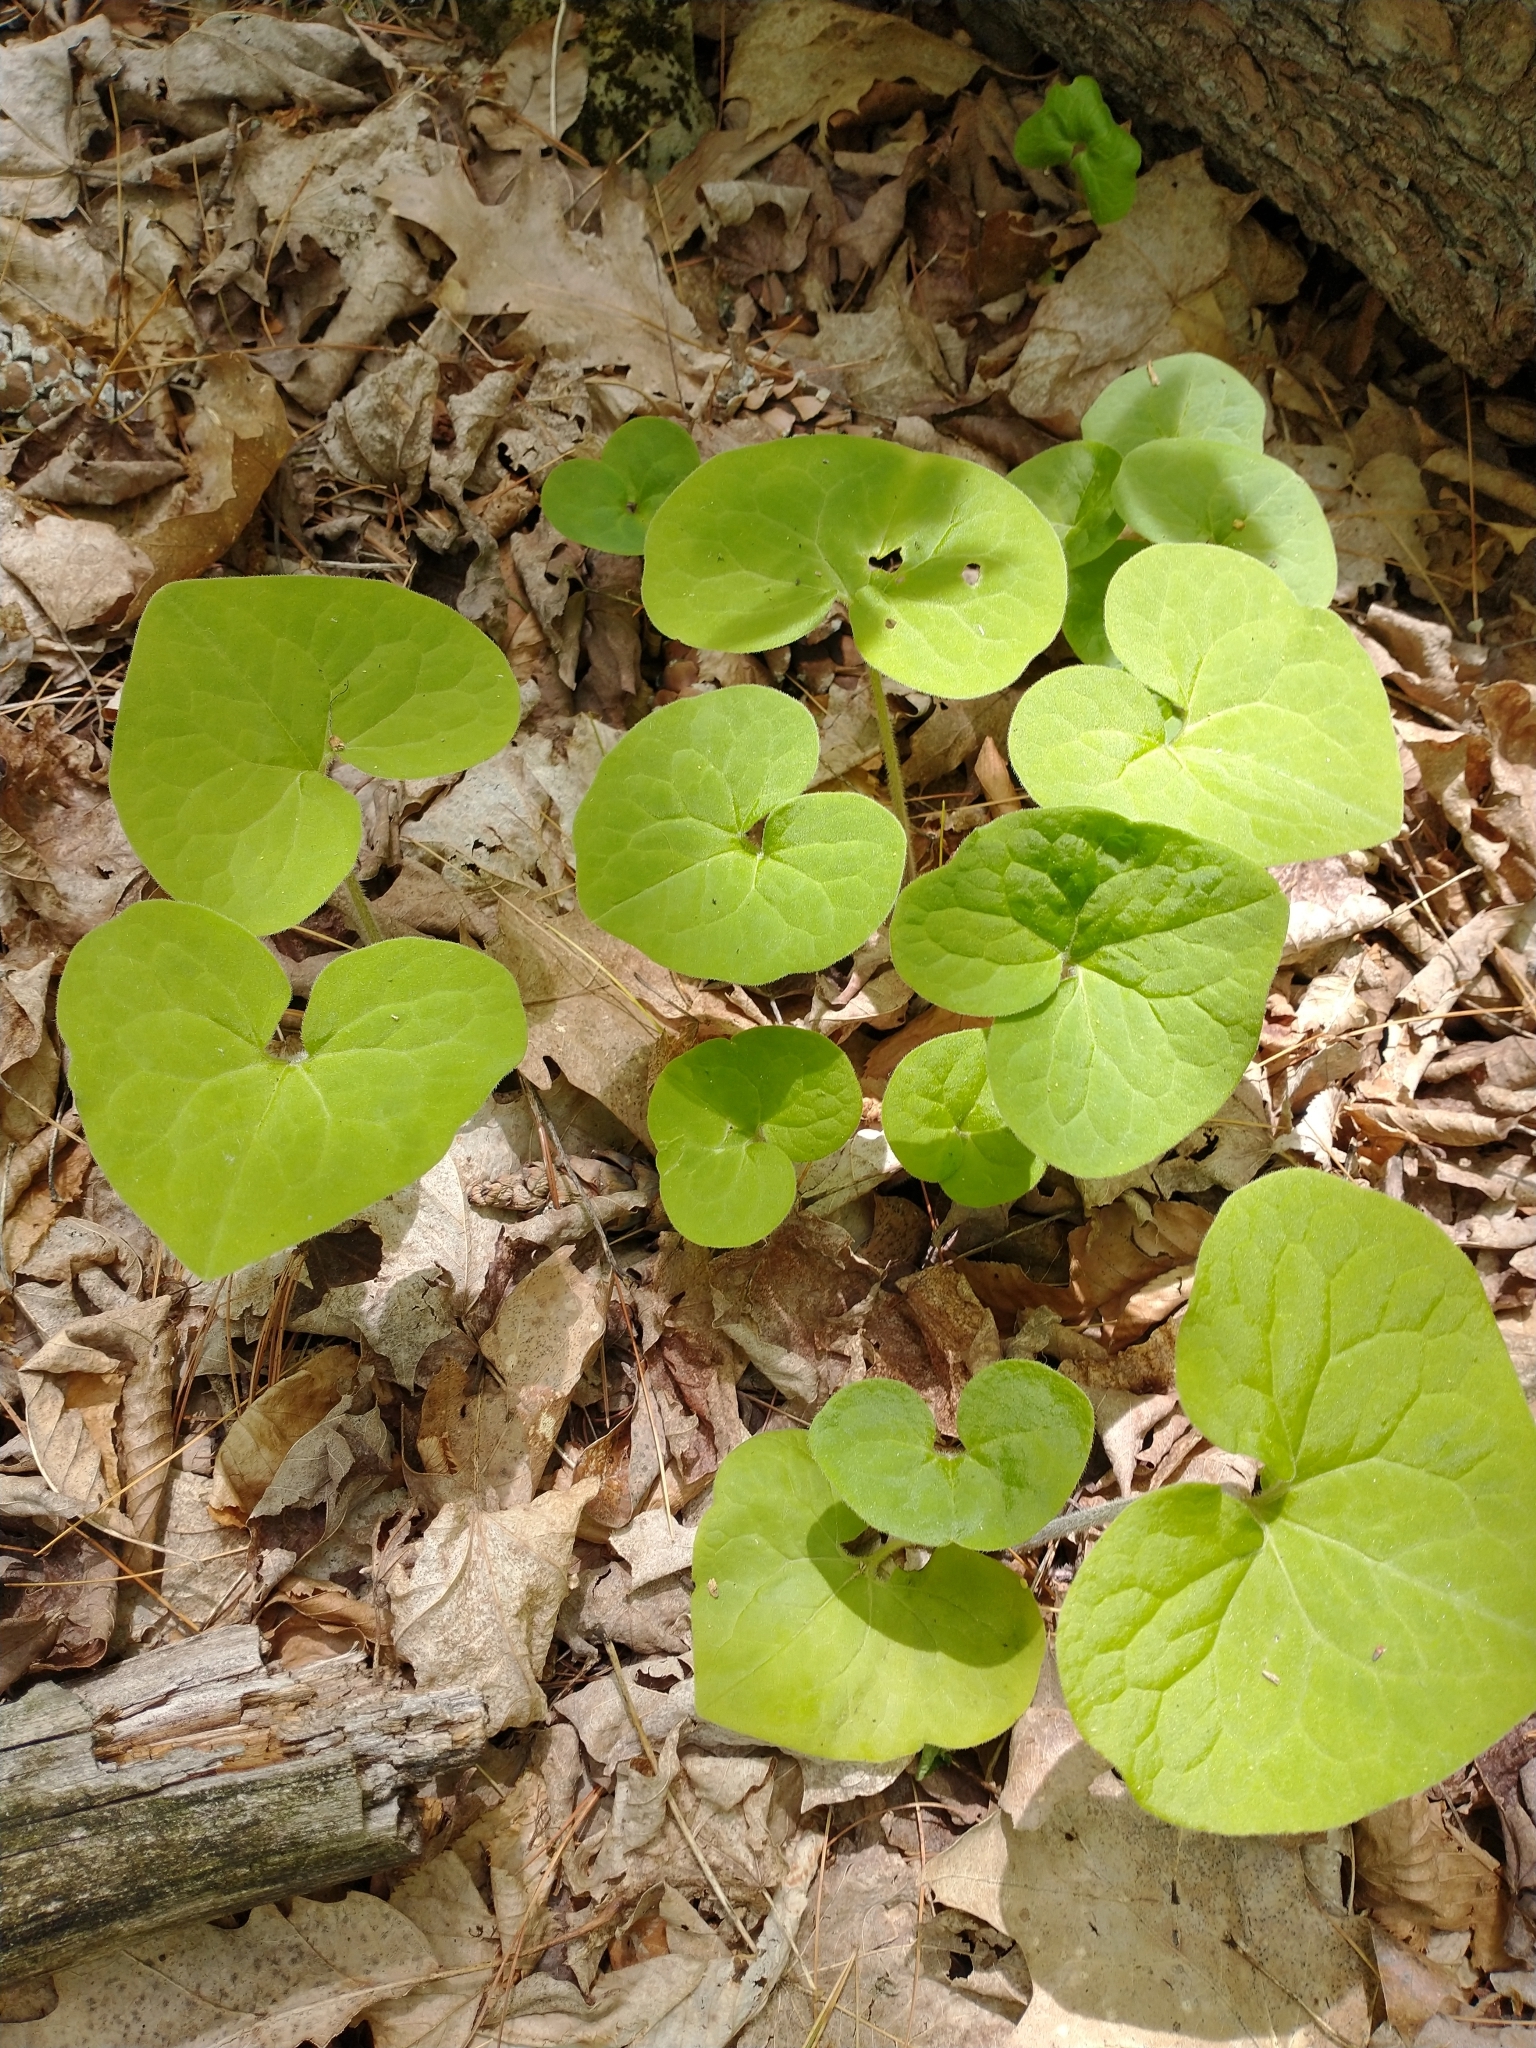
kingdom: Plantae
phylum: Tracheophyta
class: Magnoliopsida
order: Piperales
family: Aristolochiaceae
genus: Asarum
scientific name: Asarum canadense
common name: Wild ginger
